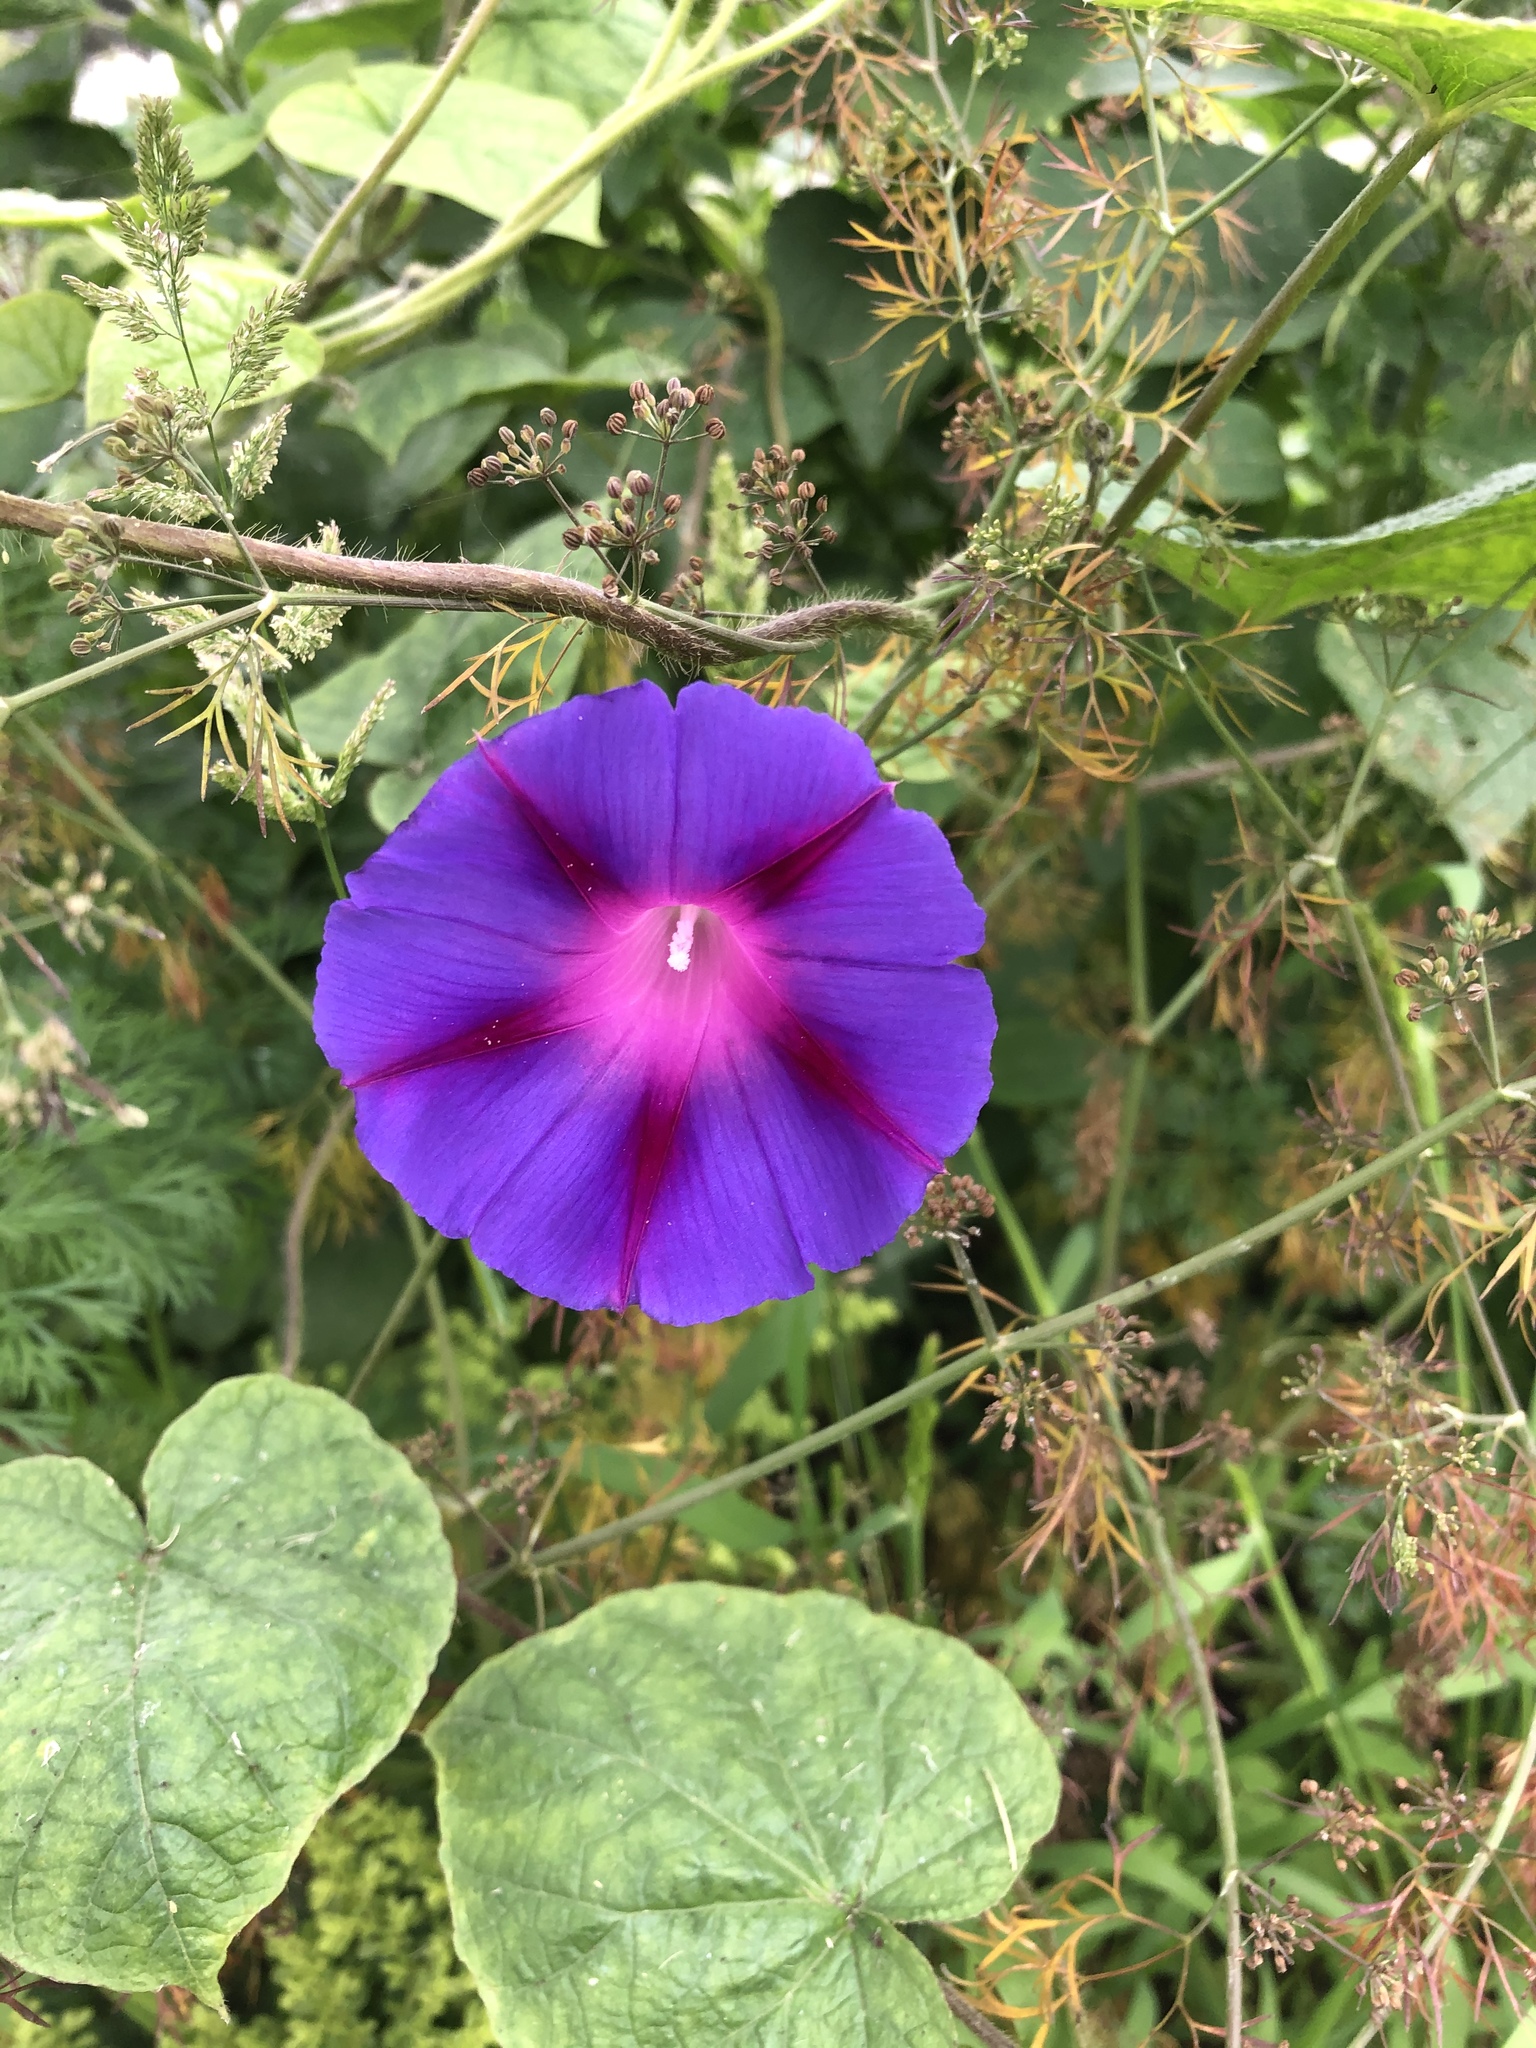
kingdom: Plantae
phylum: Tracheophyta
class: Magnoliopsida
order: Solanales
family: Convolvulaceae
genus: Ipomoea
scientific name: Ipomoea purpurea
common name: Common morning-glory
